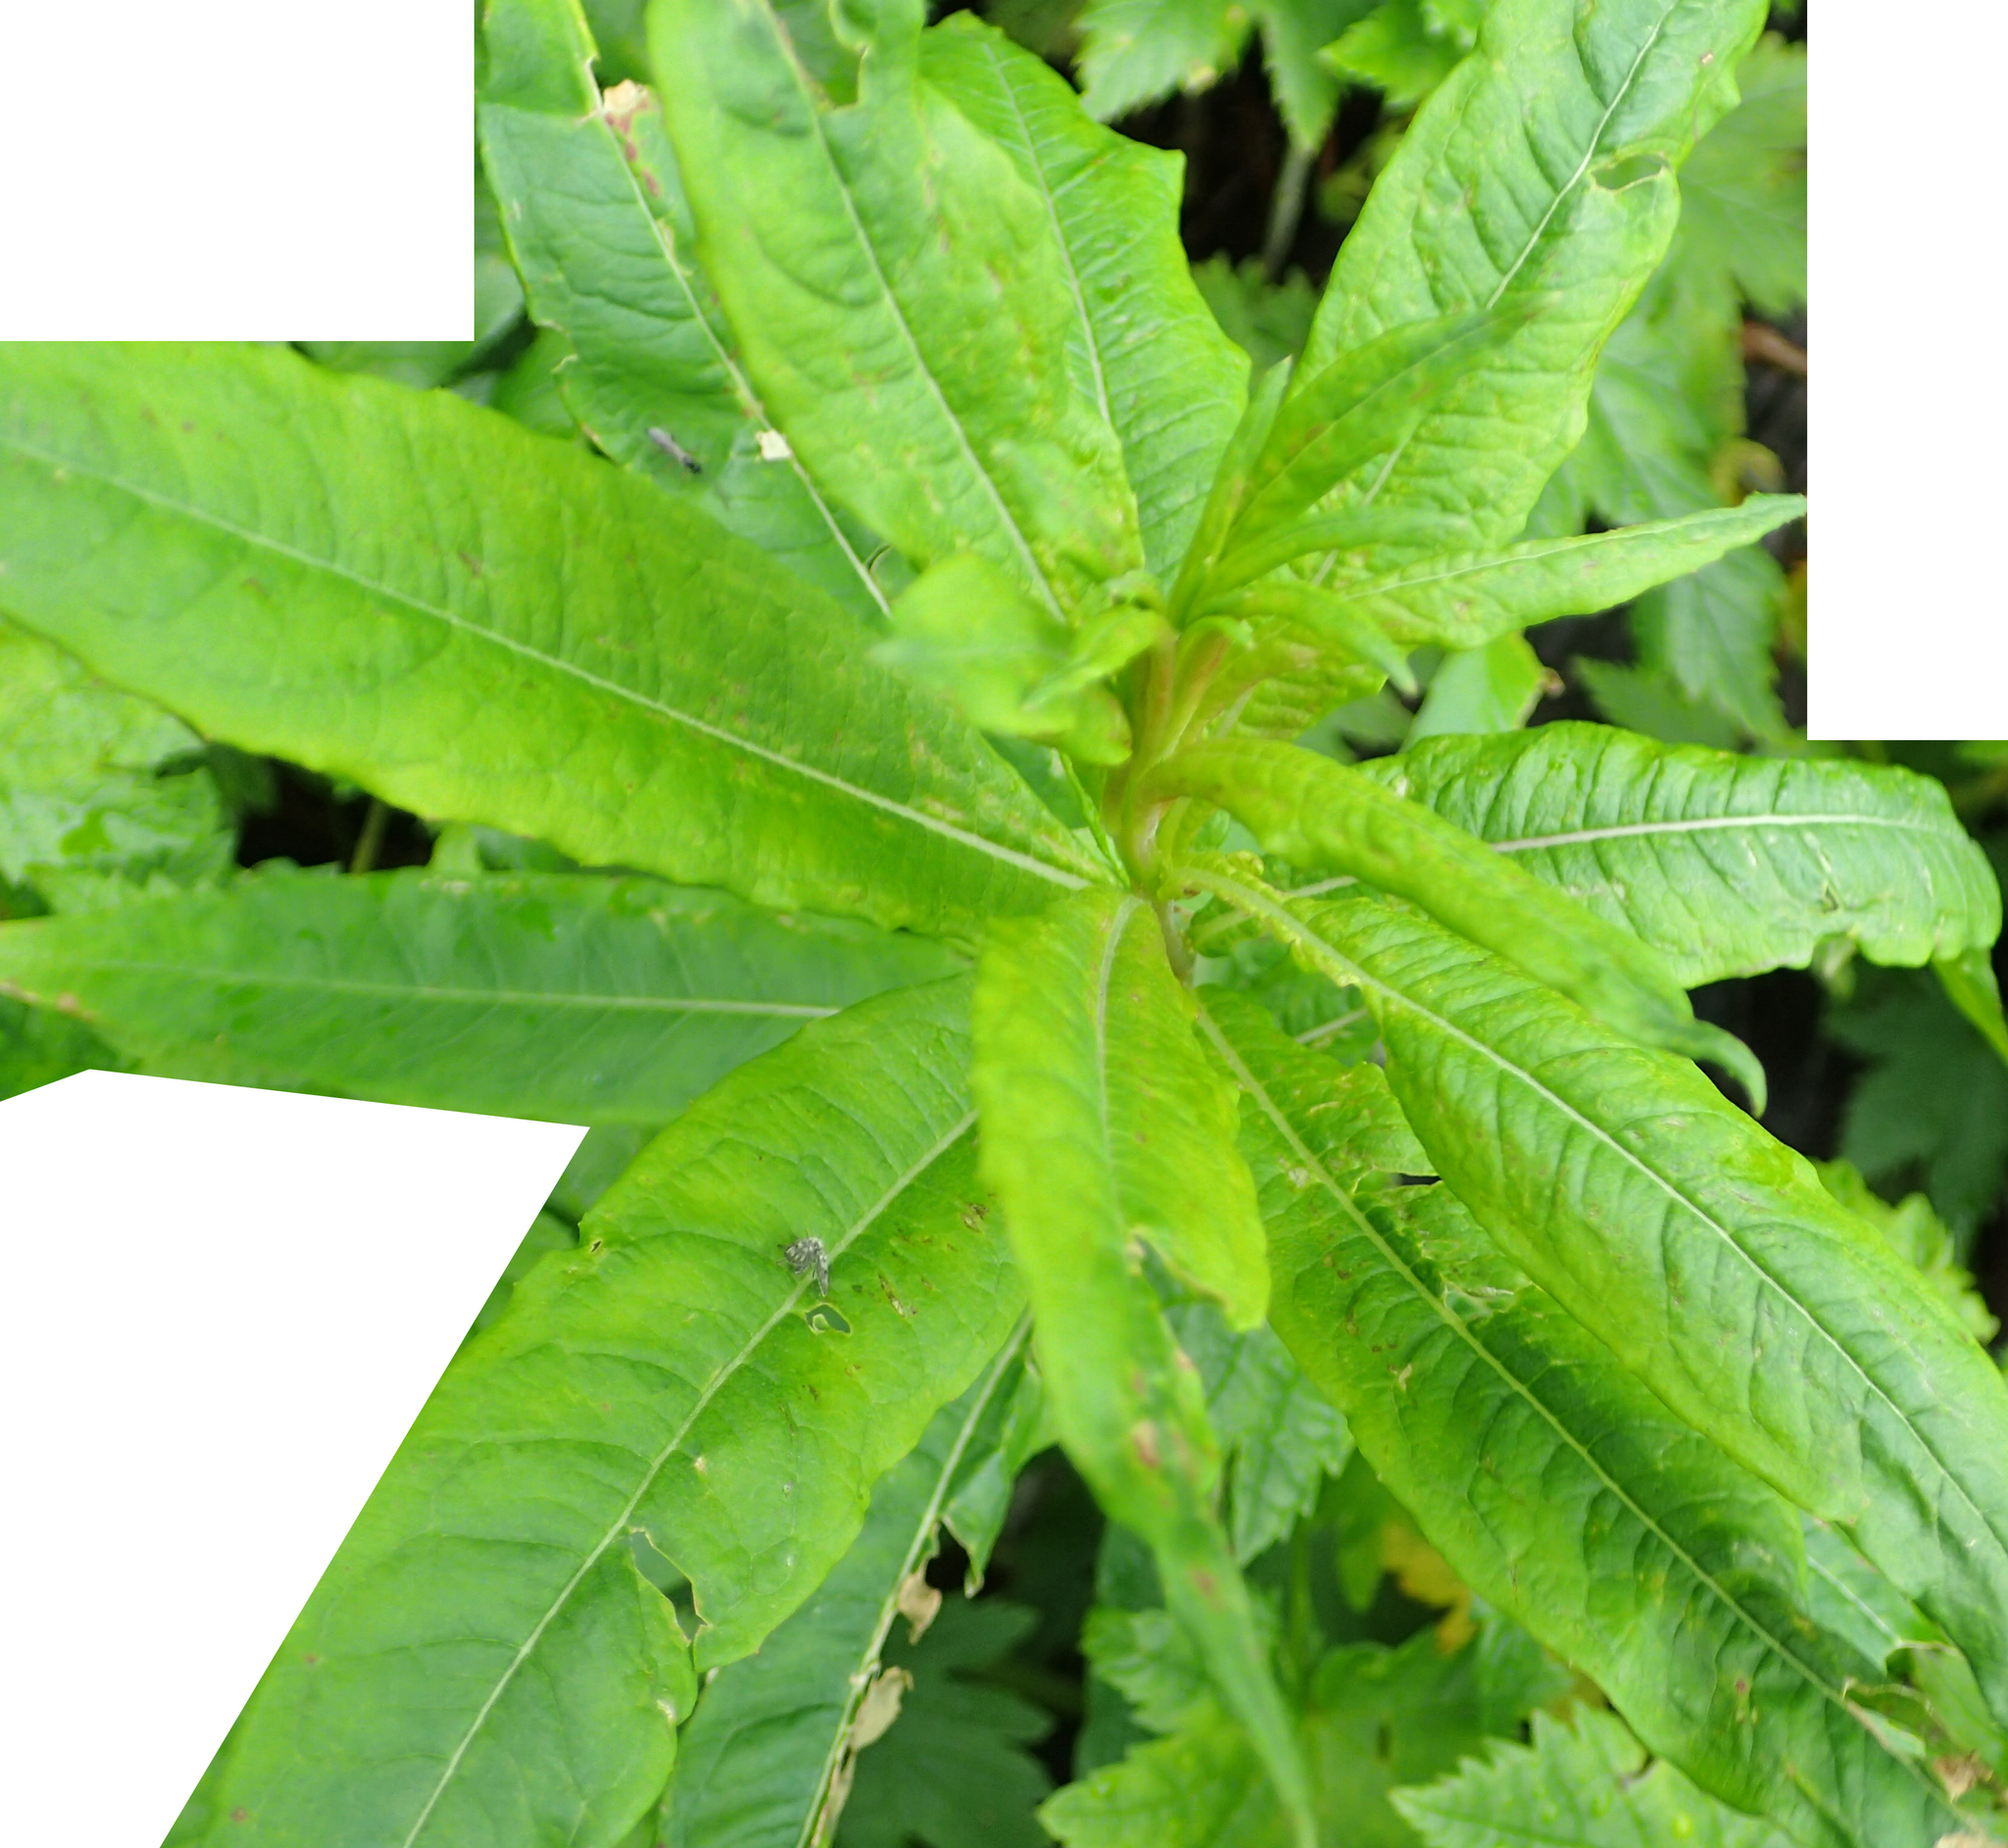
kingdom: Plantae
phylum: Tracheophyta
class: Magnoliopsida
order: Myrtales
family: Onagraceae
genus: Chamaenerion
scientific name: Chamaenerion angustifolium
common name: Fireweed
